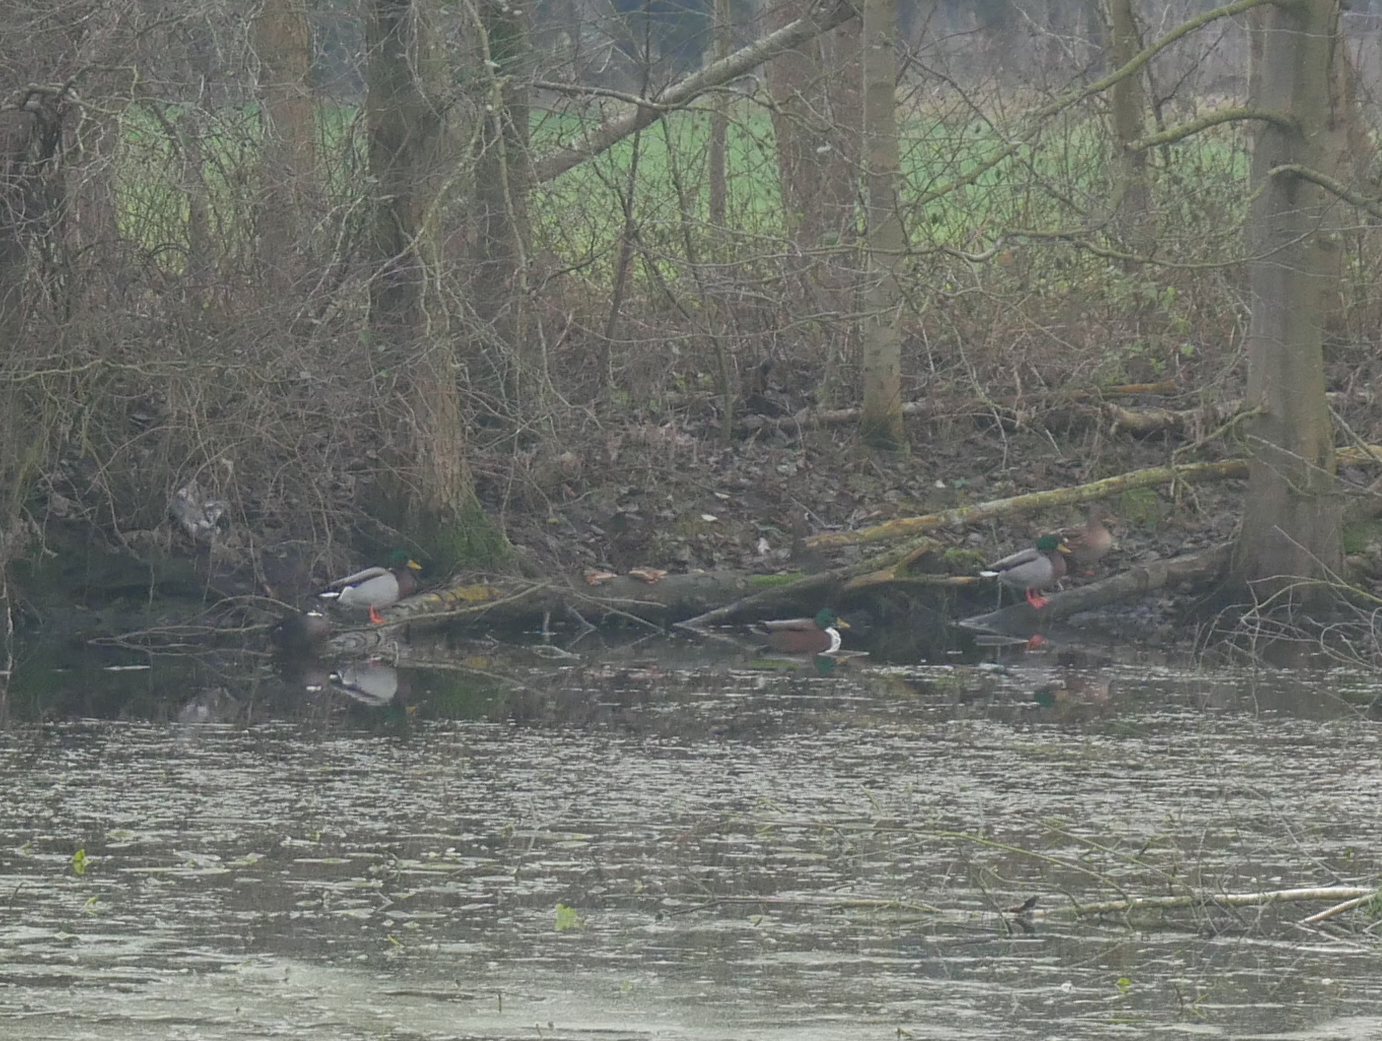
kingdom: Animalia
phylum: Chordata
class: Aves
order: Anseriformes
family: Anatidae
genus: Anas
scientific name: Anas platyrhynchos
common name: Mallard
